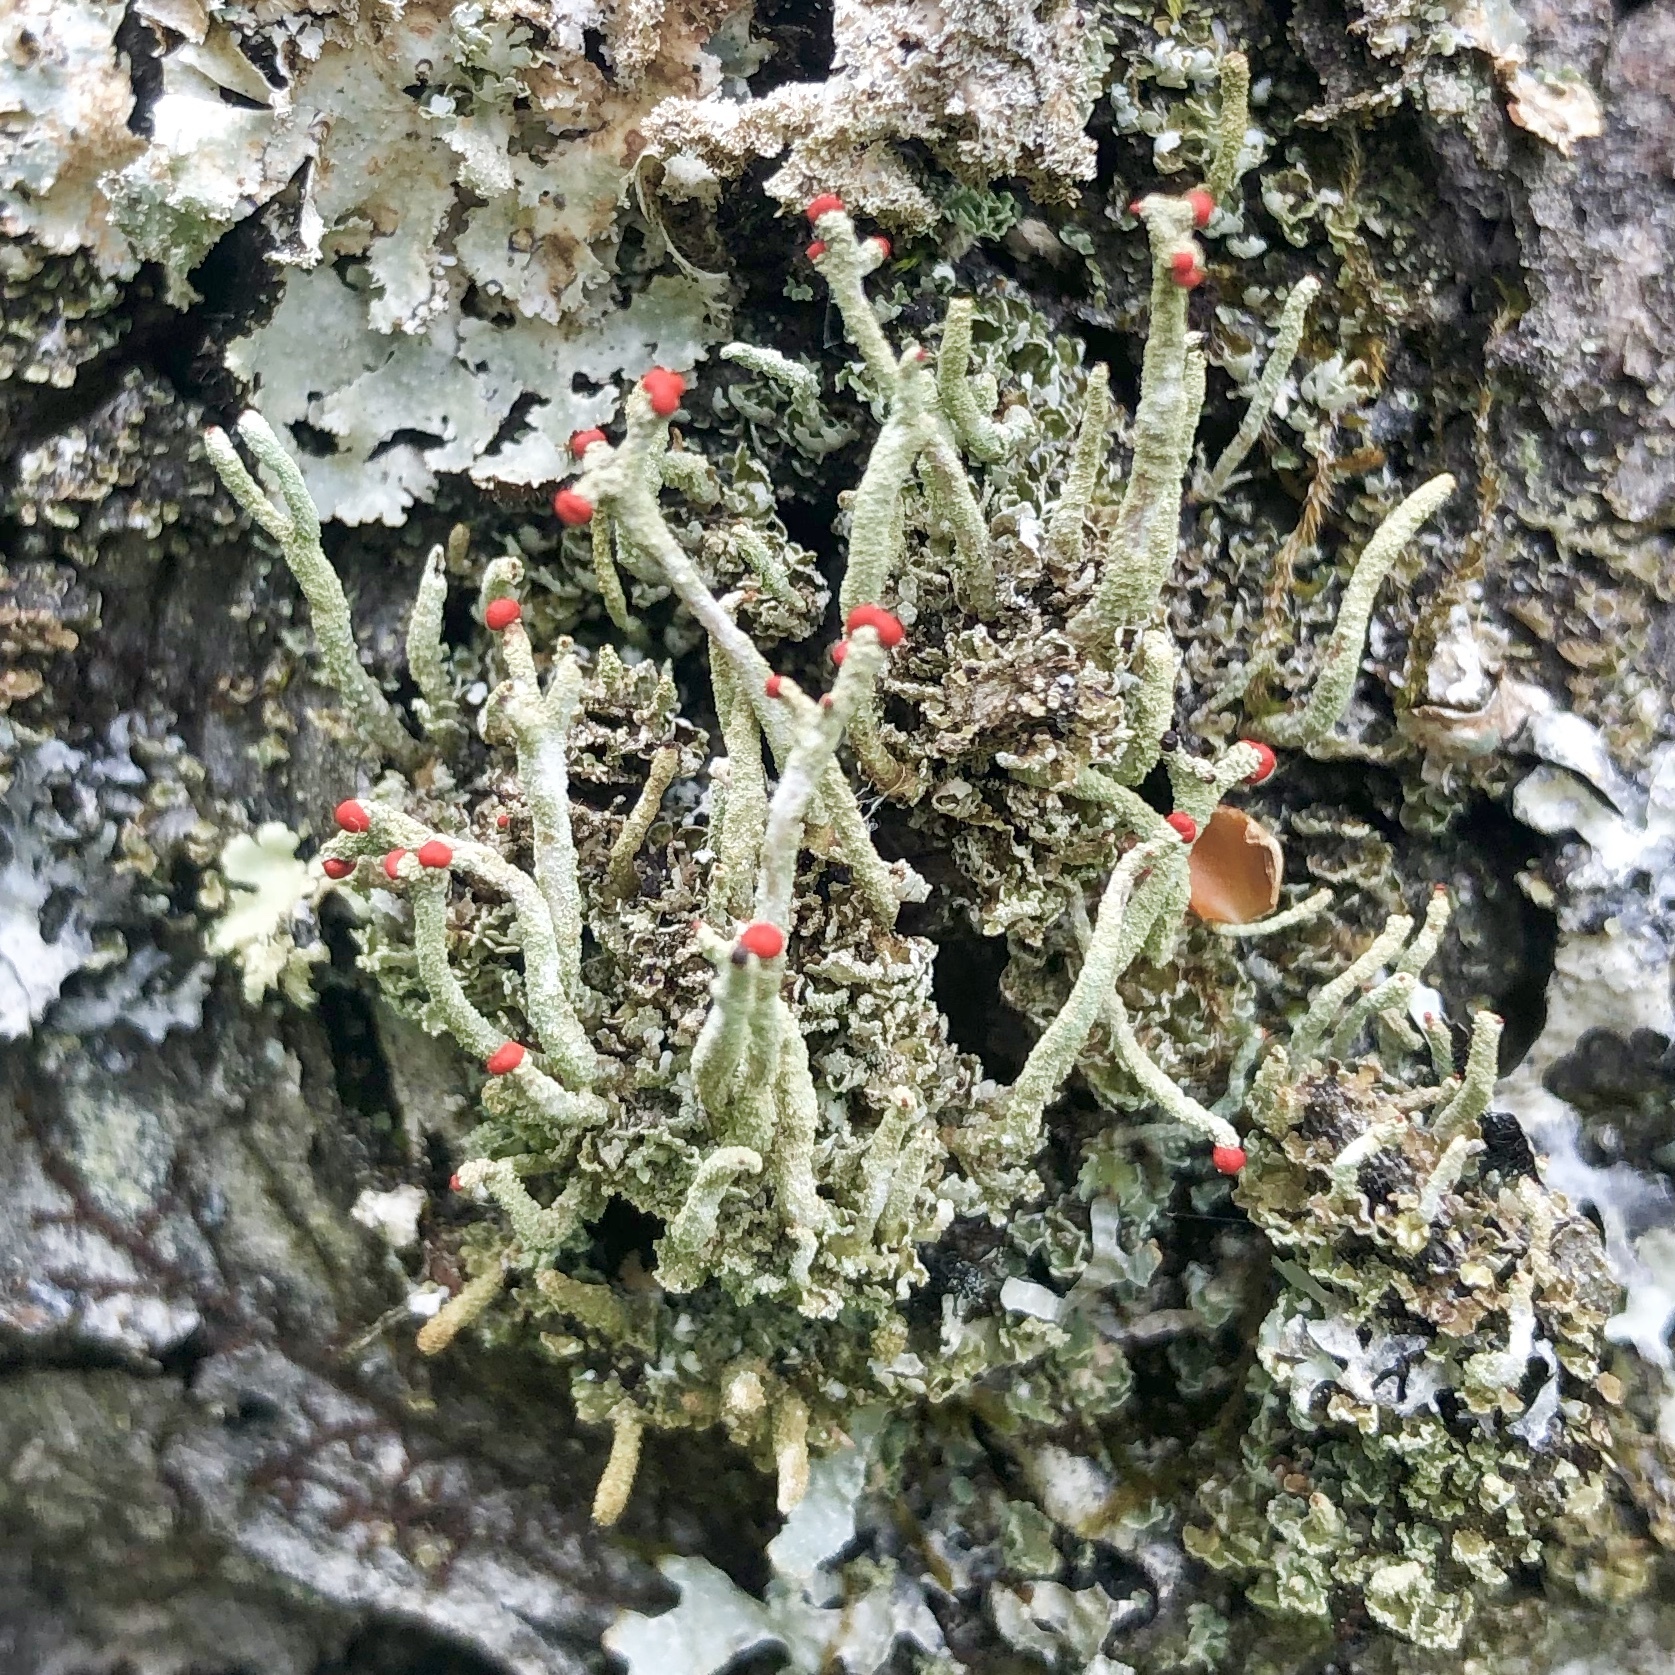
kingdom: Fungi
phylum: Ascomycota
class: Lecanoromycetes
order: Lecanorales
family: Cladoniaceae
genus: Cladonia
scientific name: Cladonia macilenta
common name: Lipstick powderhorn
